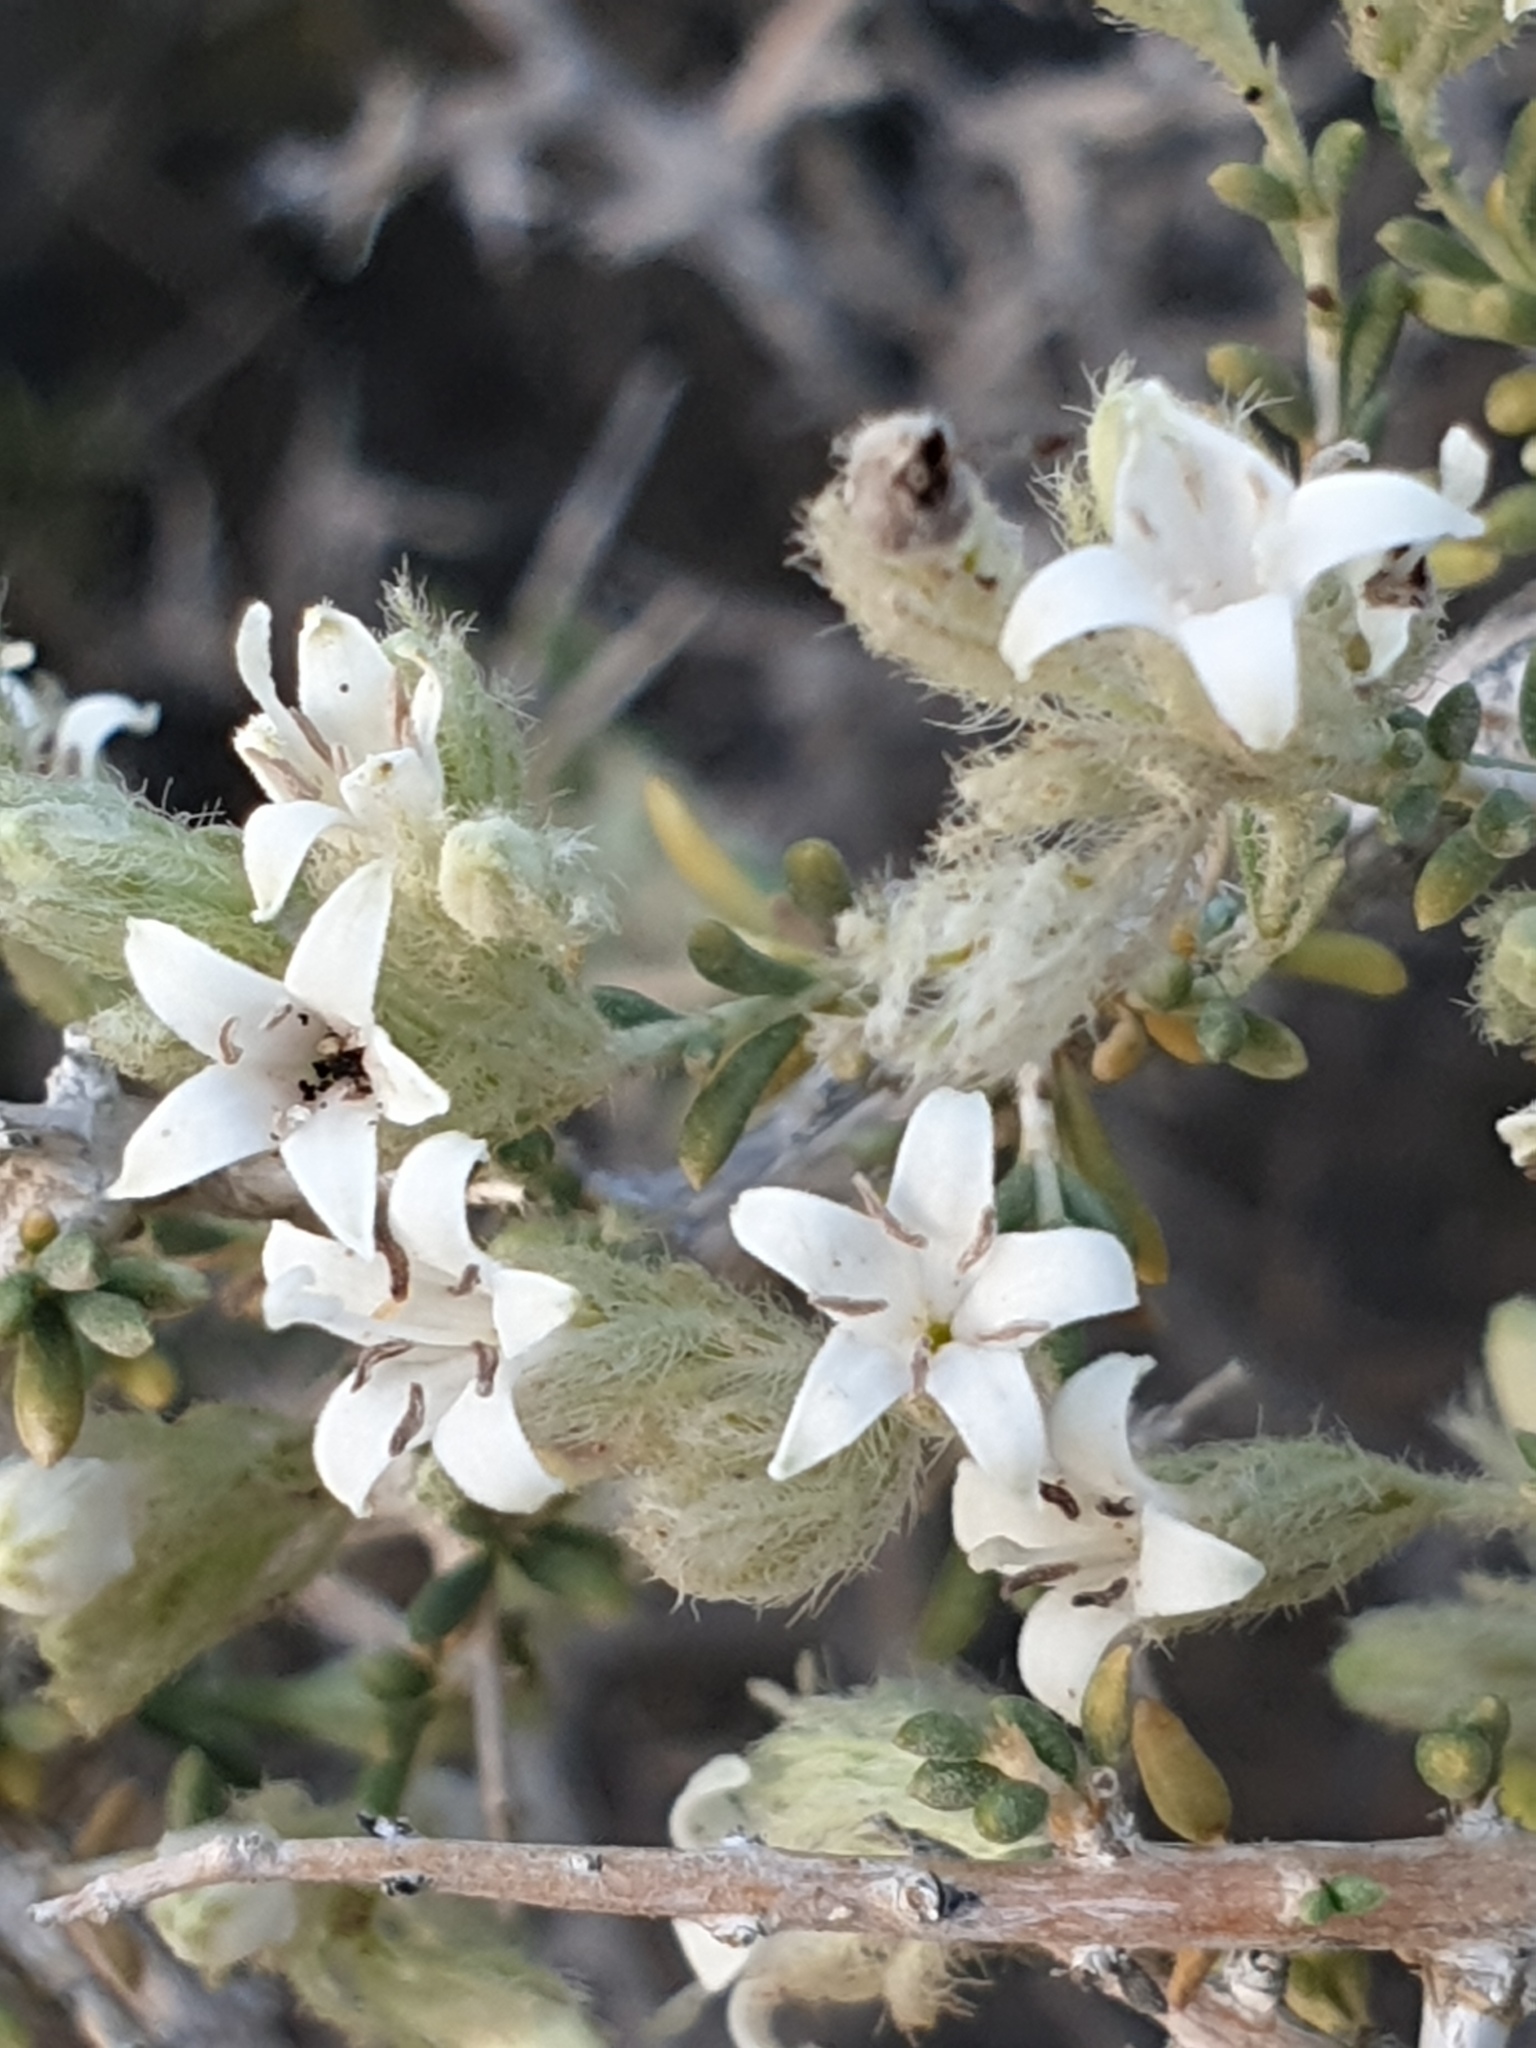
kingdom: Plantae
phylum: Tracheophyta
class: Magnoliopsida
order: Gentianales
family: Rubiaceae
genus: Plocama
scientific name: Plocama aucheri
